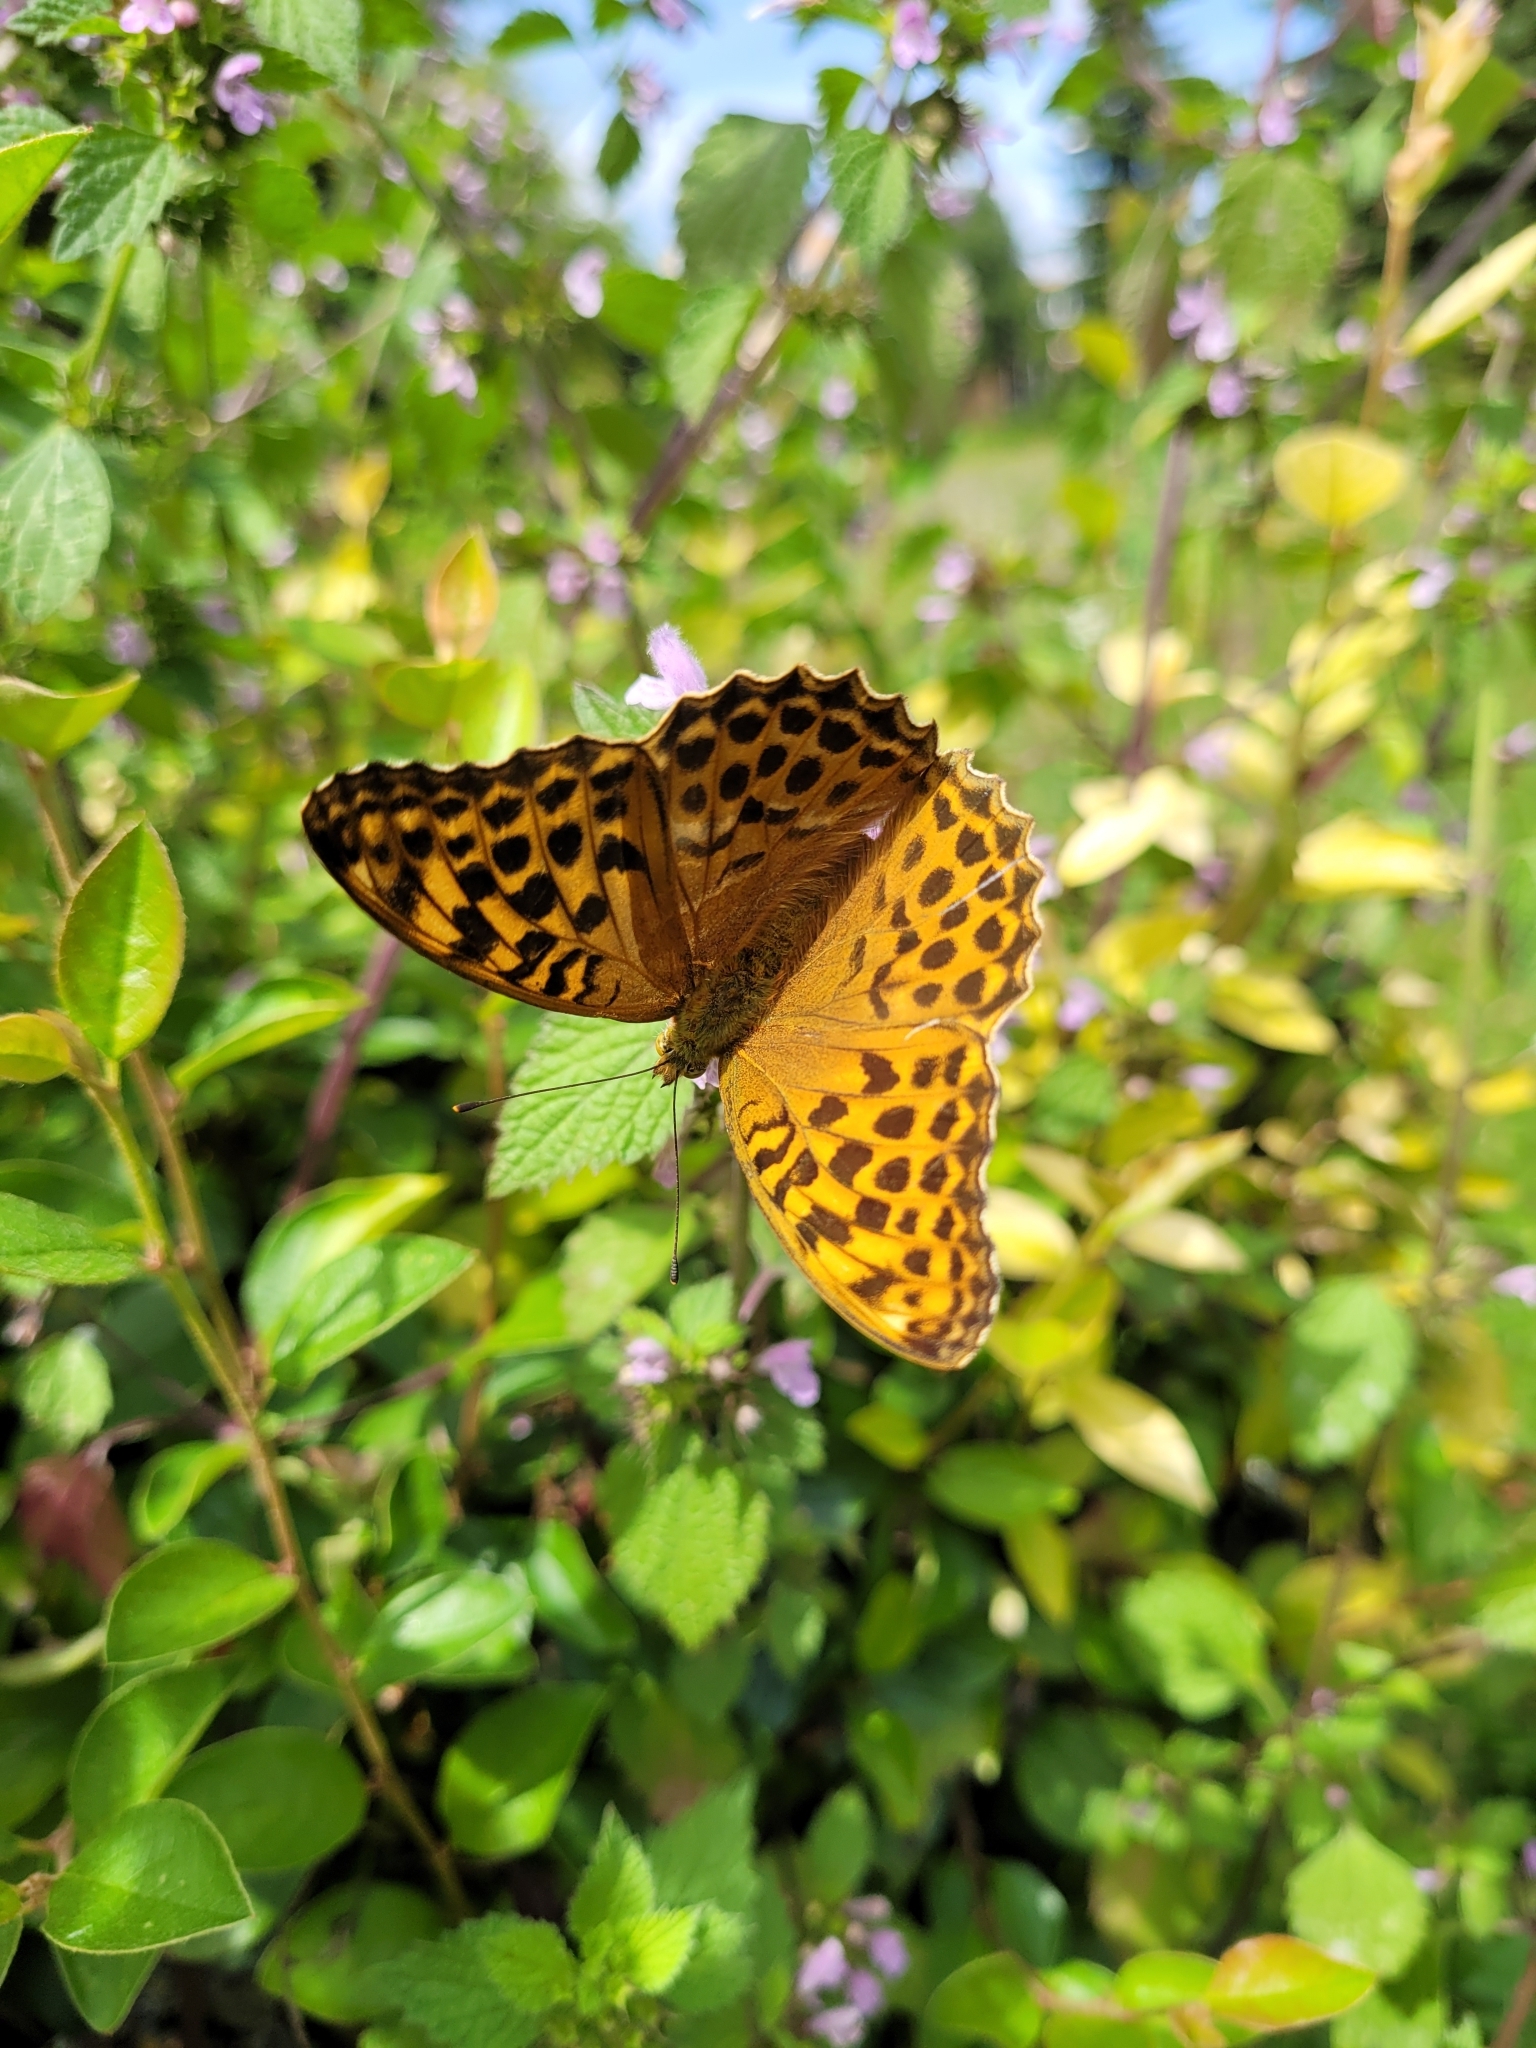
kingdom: Animalia
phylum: Arthropoda
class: Insecta
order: Lepidoptera
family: Nymphalidae
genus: Argynnis
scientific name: Argynnis paphia
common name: Silver-washed fritillary
